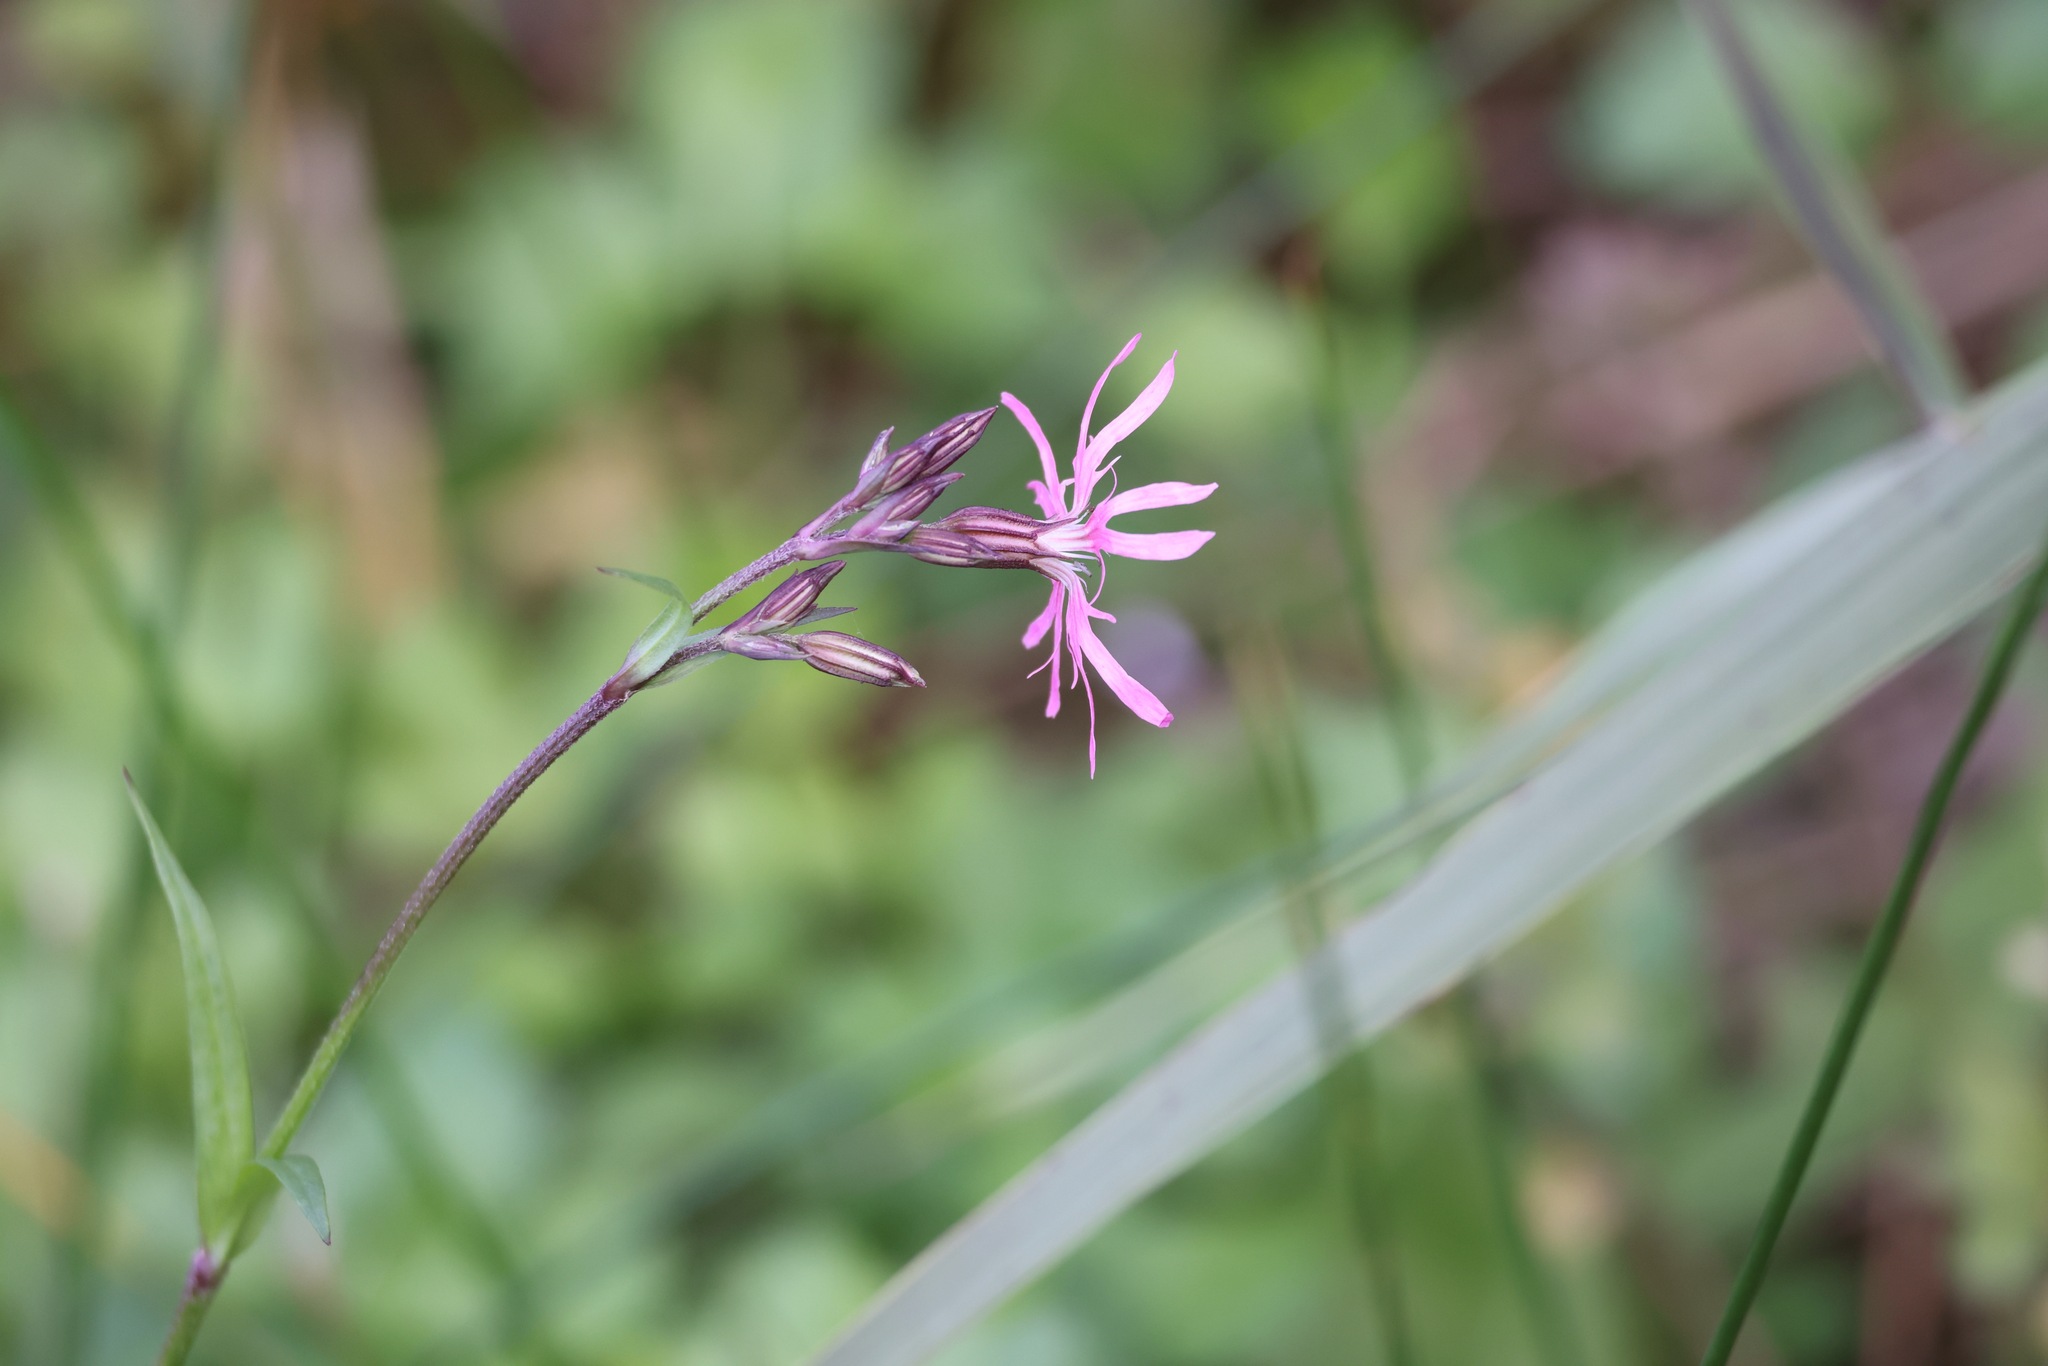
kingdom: Plantae
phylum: Tracheophyta
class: Magnoliopsida
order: Caryophyllales
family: Caryophyllaceae
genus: Silene
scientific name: Silene flos-cuculi
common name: Ragged-robin
